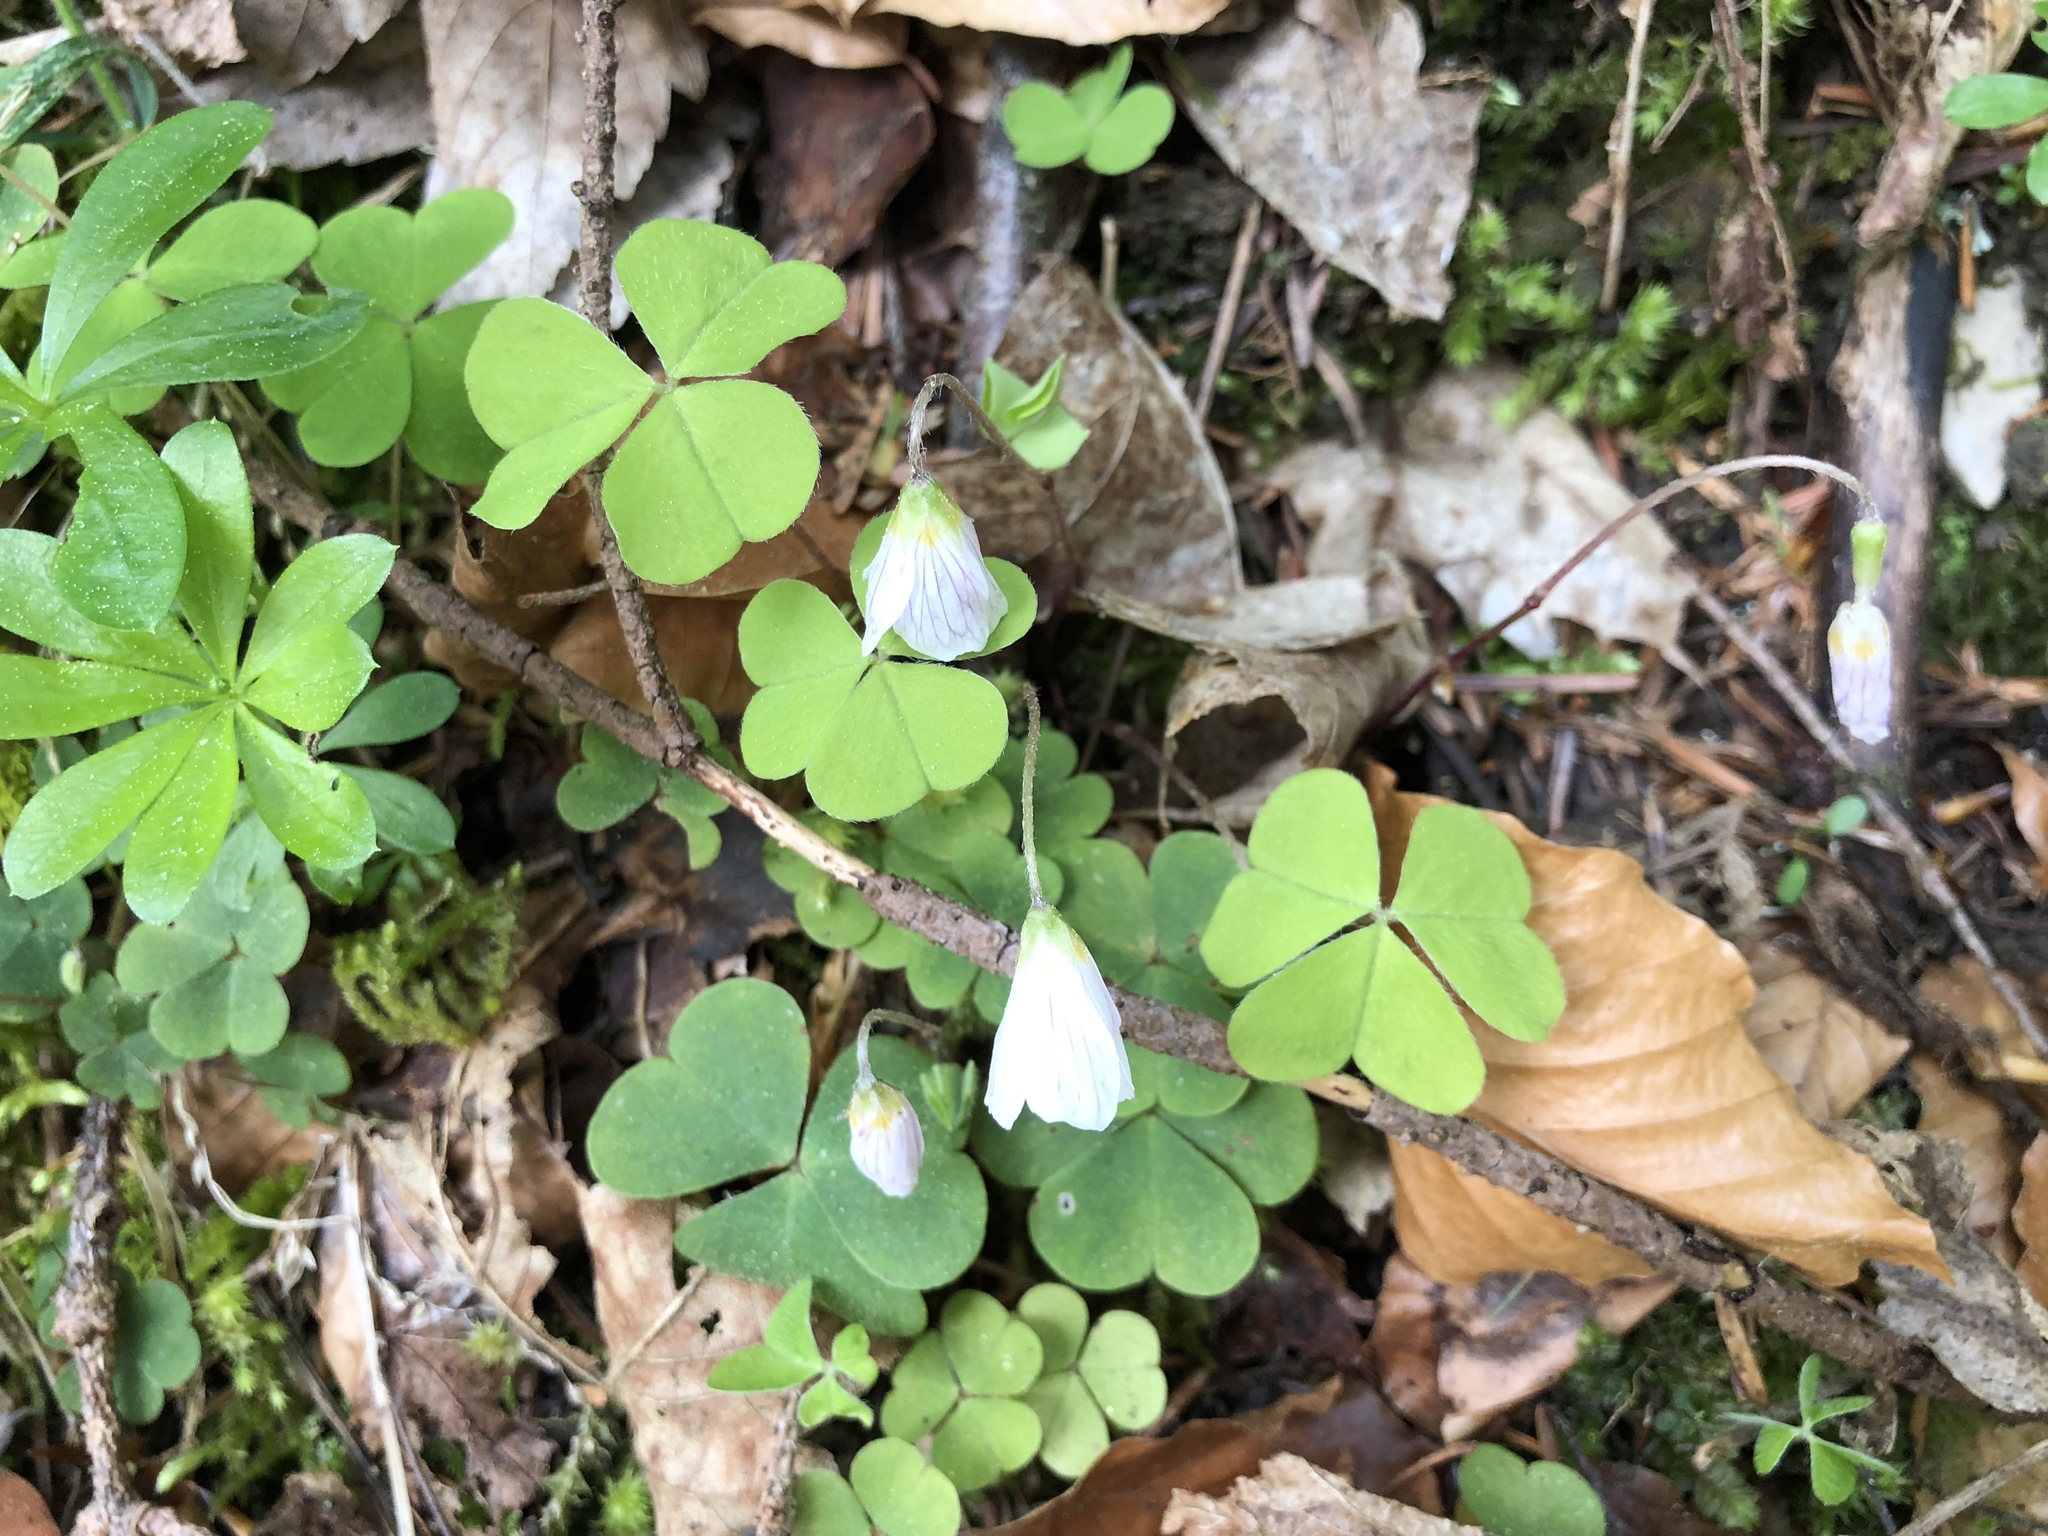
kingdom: Plantae
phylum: Tracheophyta
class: Magnoliopsida
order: Oxalidales
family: Oxalidaceae
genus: Oxalis
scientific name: Oxalis acetosella
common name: Wood-sorrel
